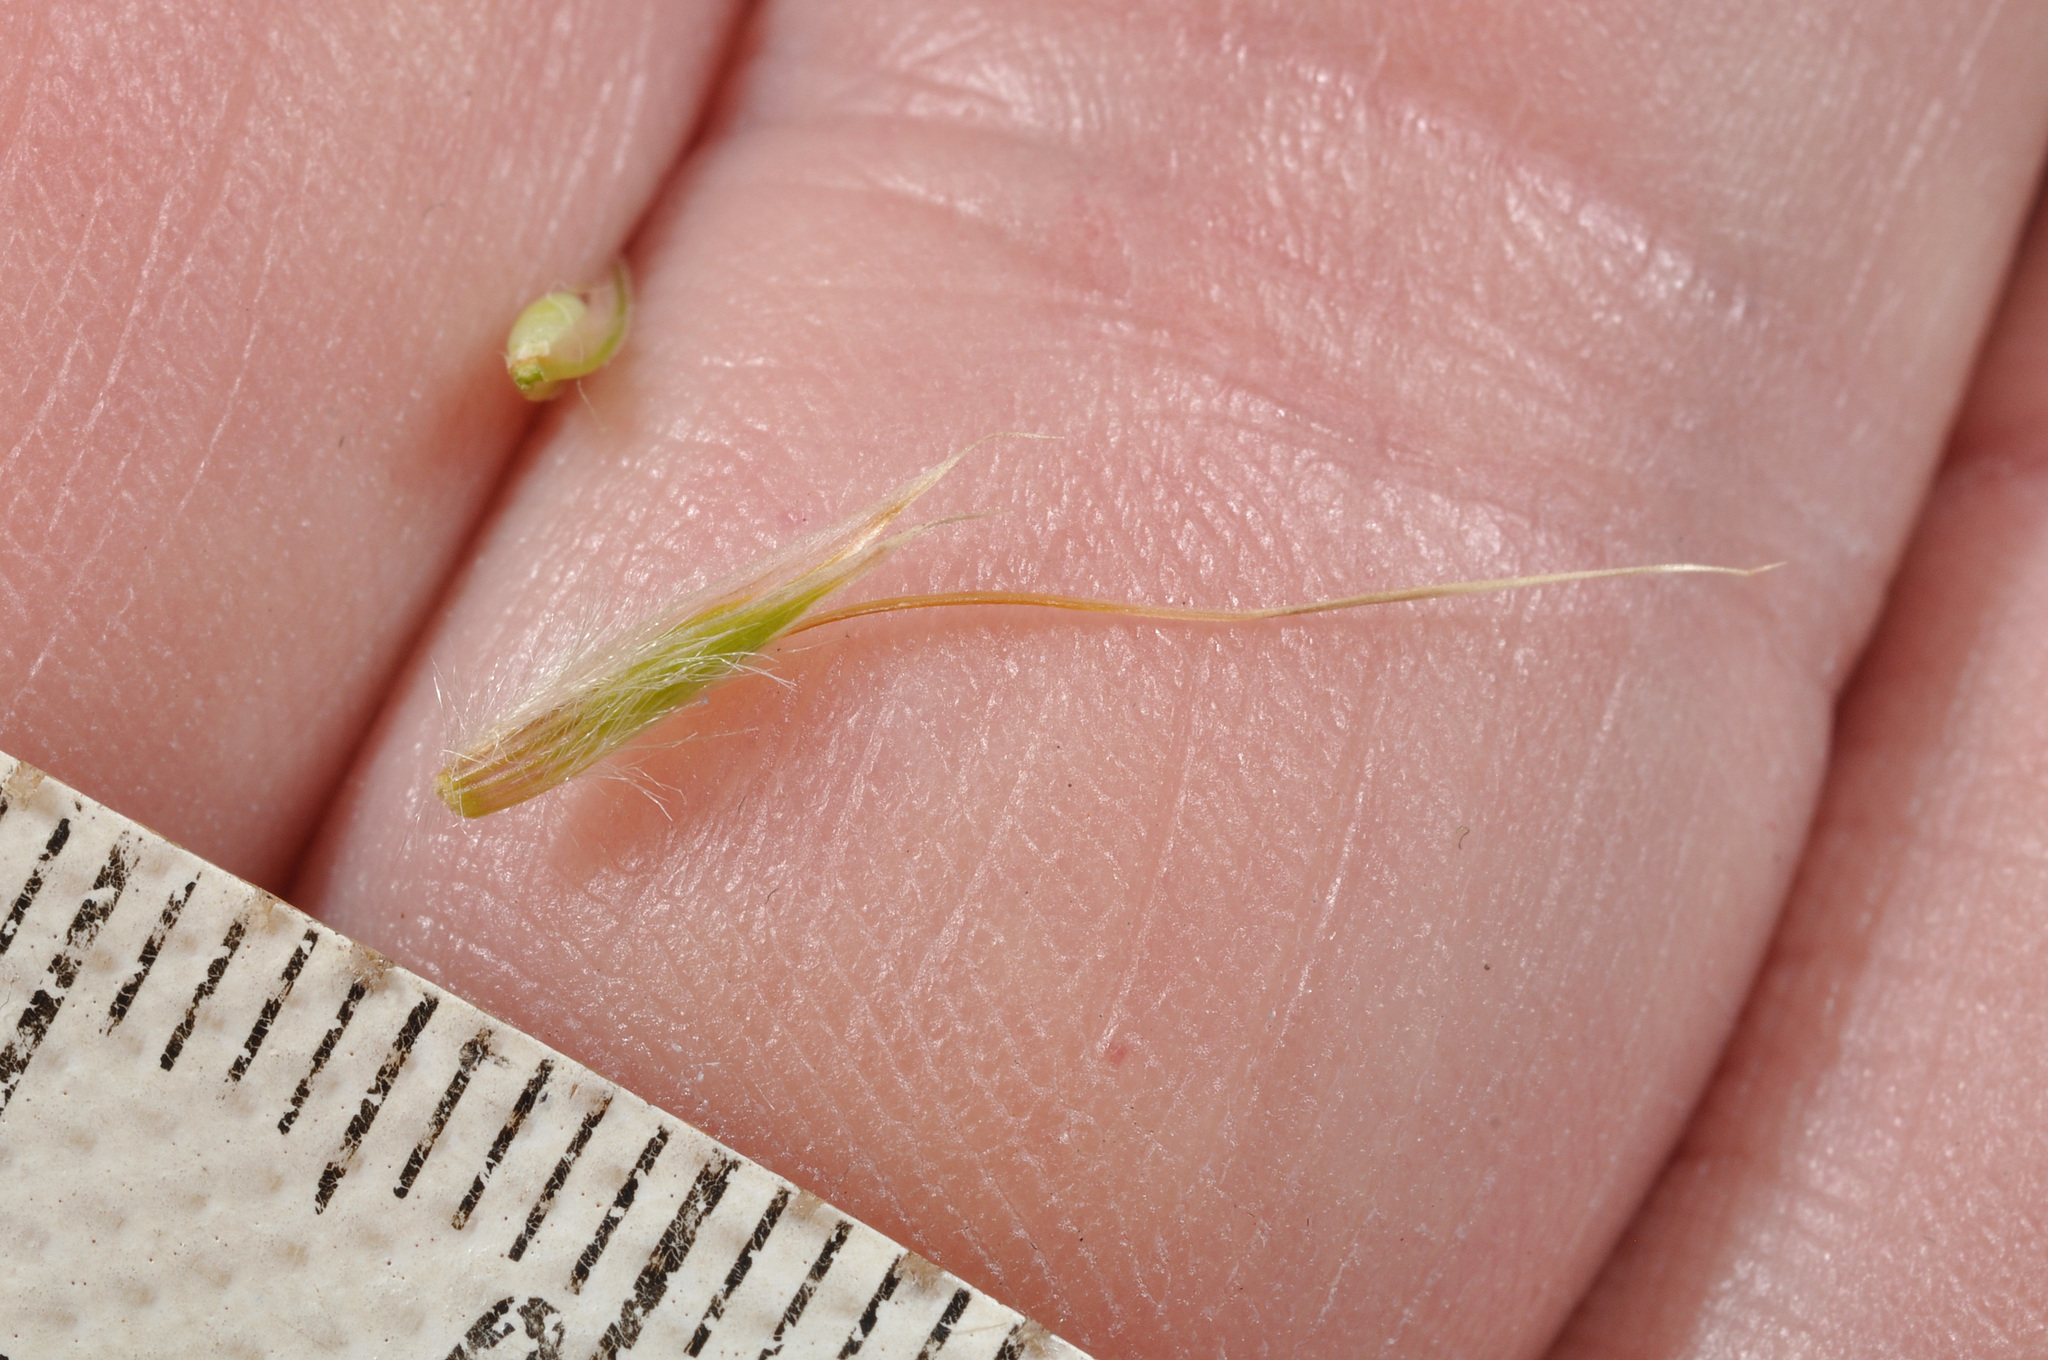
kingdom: Plantae
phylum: Tracheophyta
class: Liliopsida
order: Poales
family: Poaceae
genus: Chionochloa
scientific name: Chionochloa defracta
